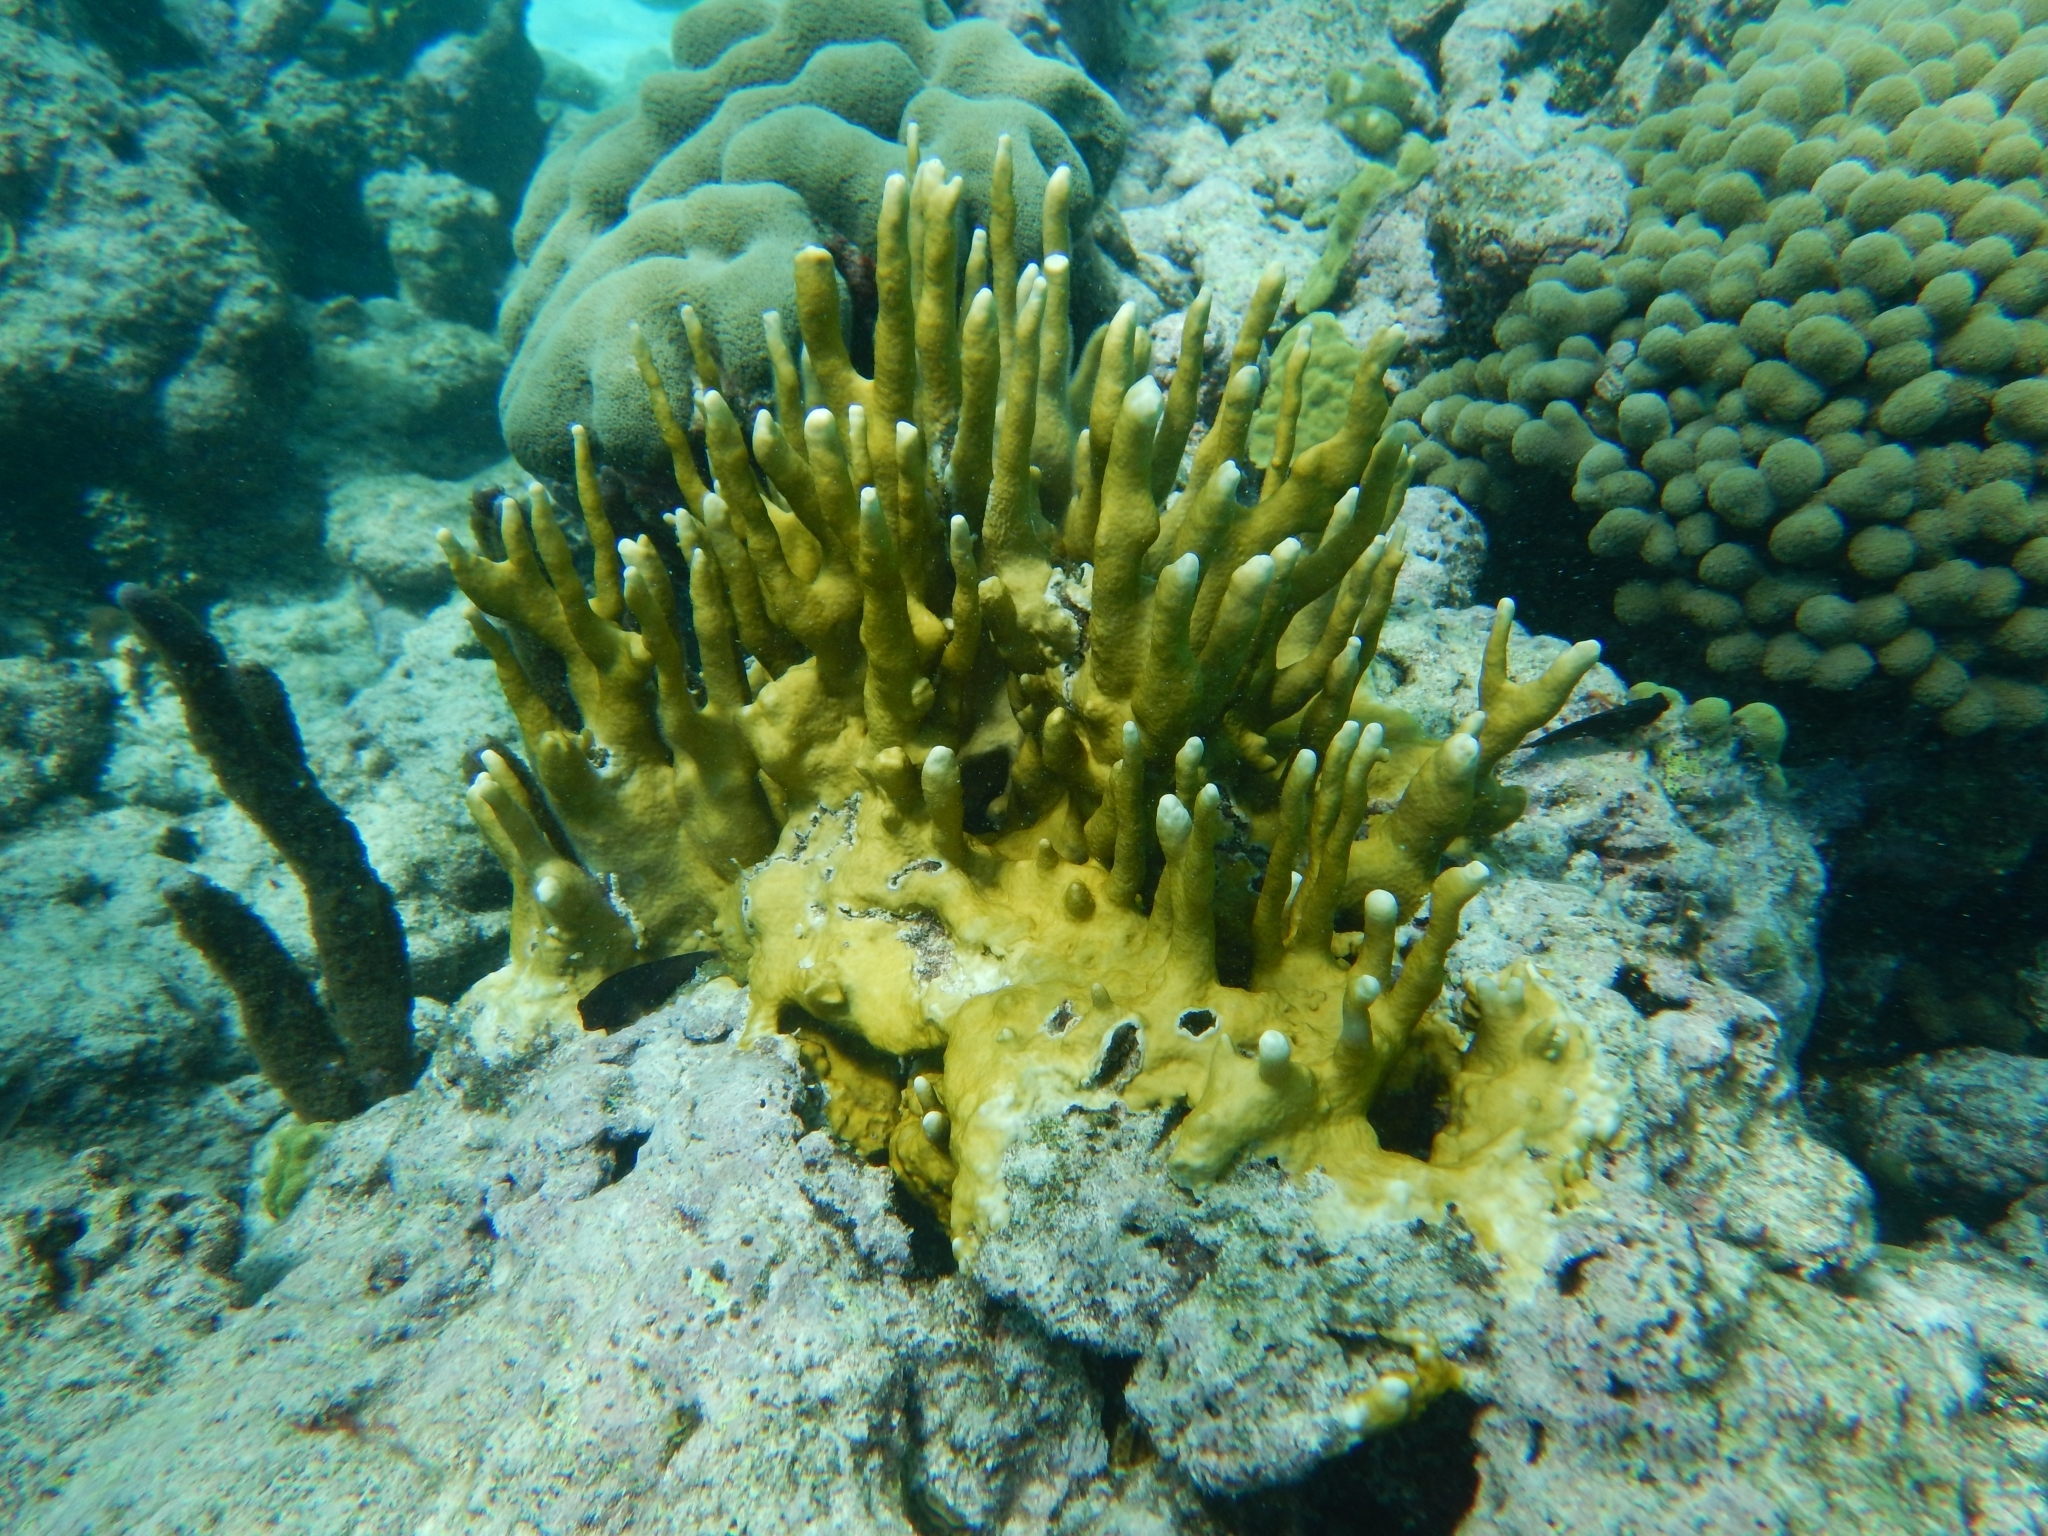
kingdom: Animalia
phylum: Cnidaria
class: Hydrozoa
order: Anthoathecata
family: Milleporidae
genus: Millepora
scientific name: Millepora alcicornis
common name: Branching fire coral
